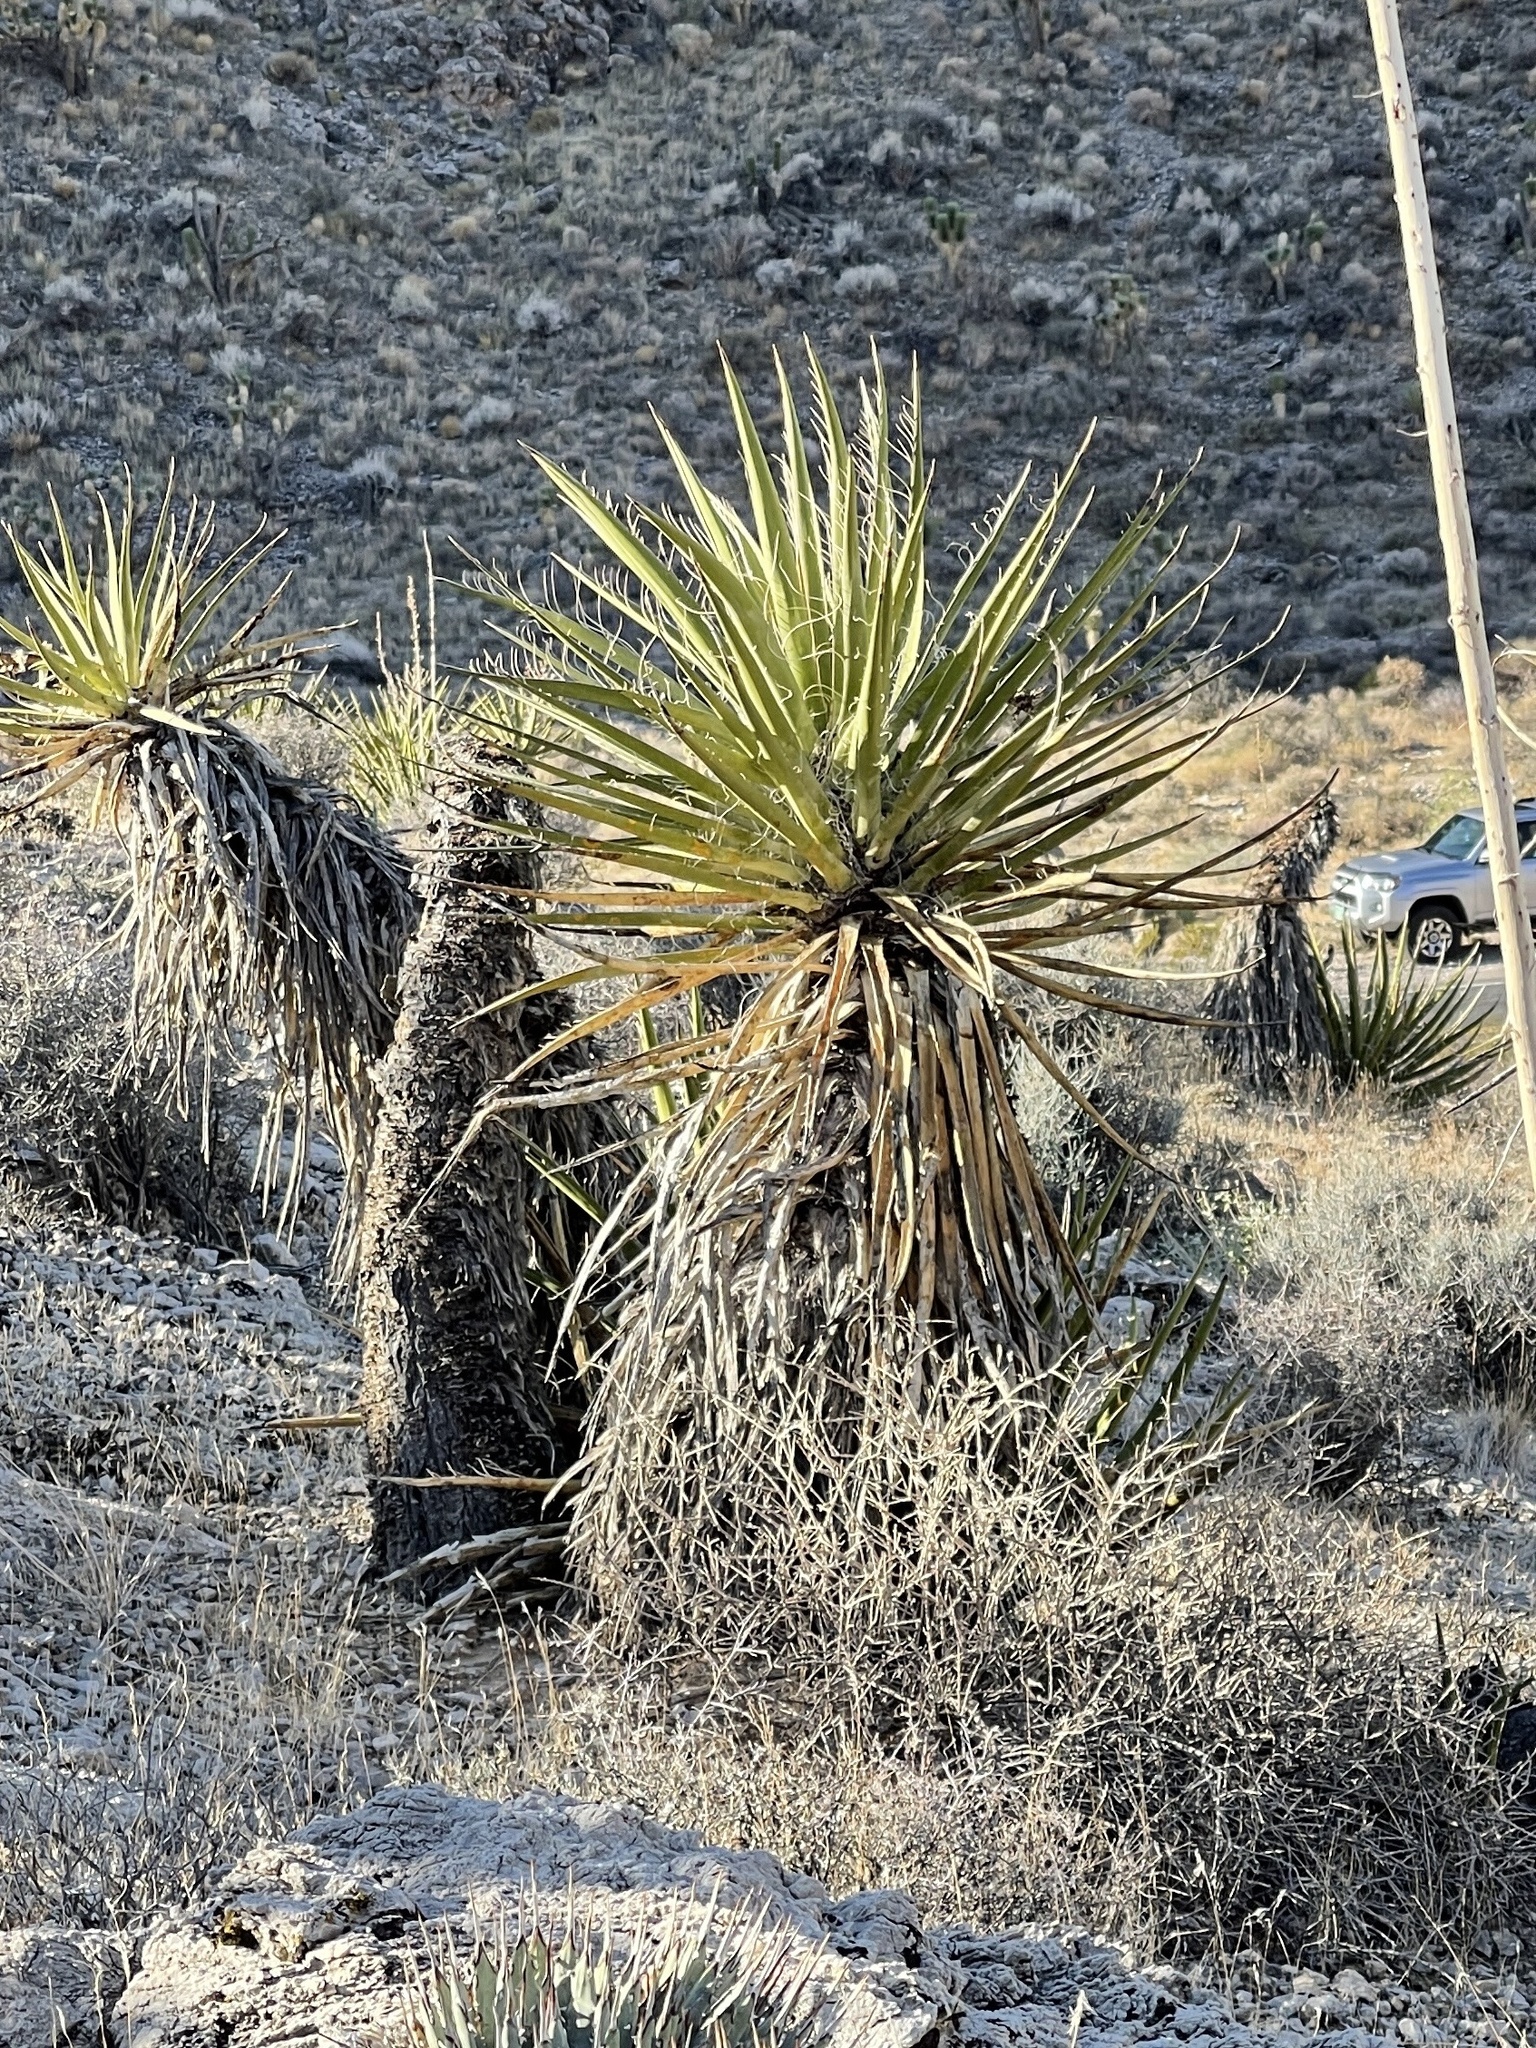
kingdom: Plantae
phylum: Tracheophyta
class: Liliopsida
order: Asparagales
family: Asparagaceae
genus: Yucca
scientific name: Yucca schidigera
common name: Mojave yucca
